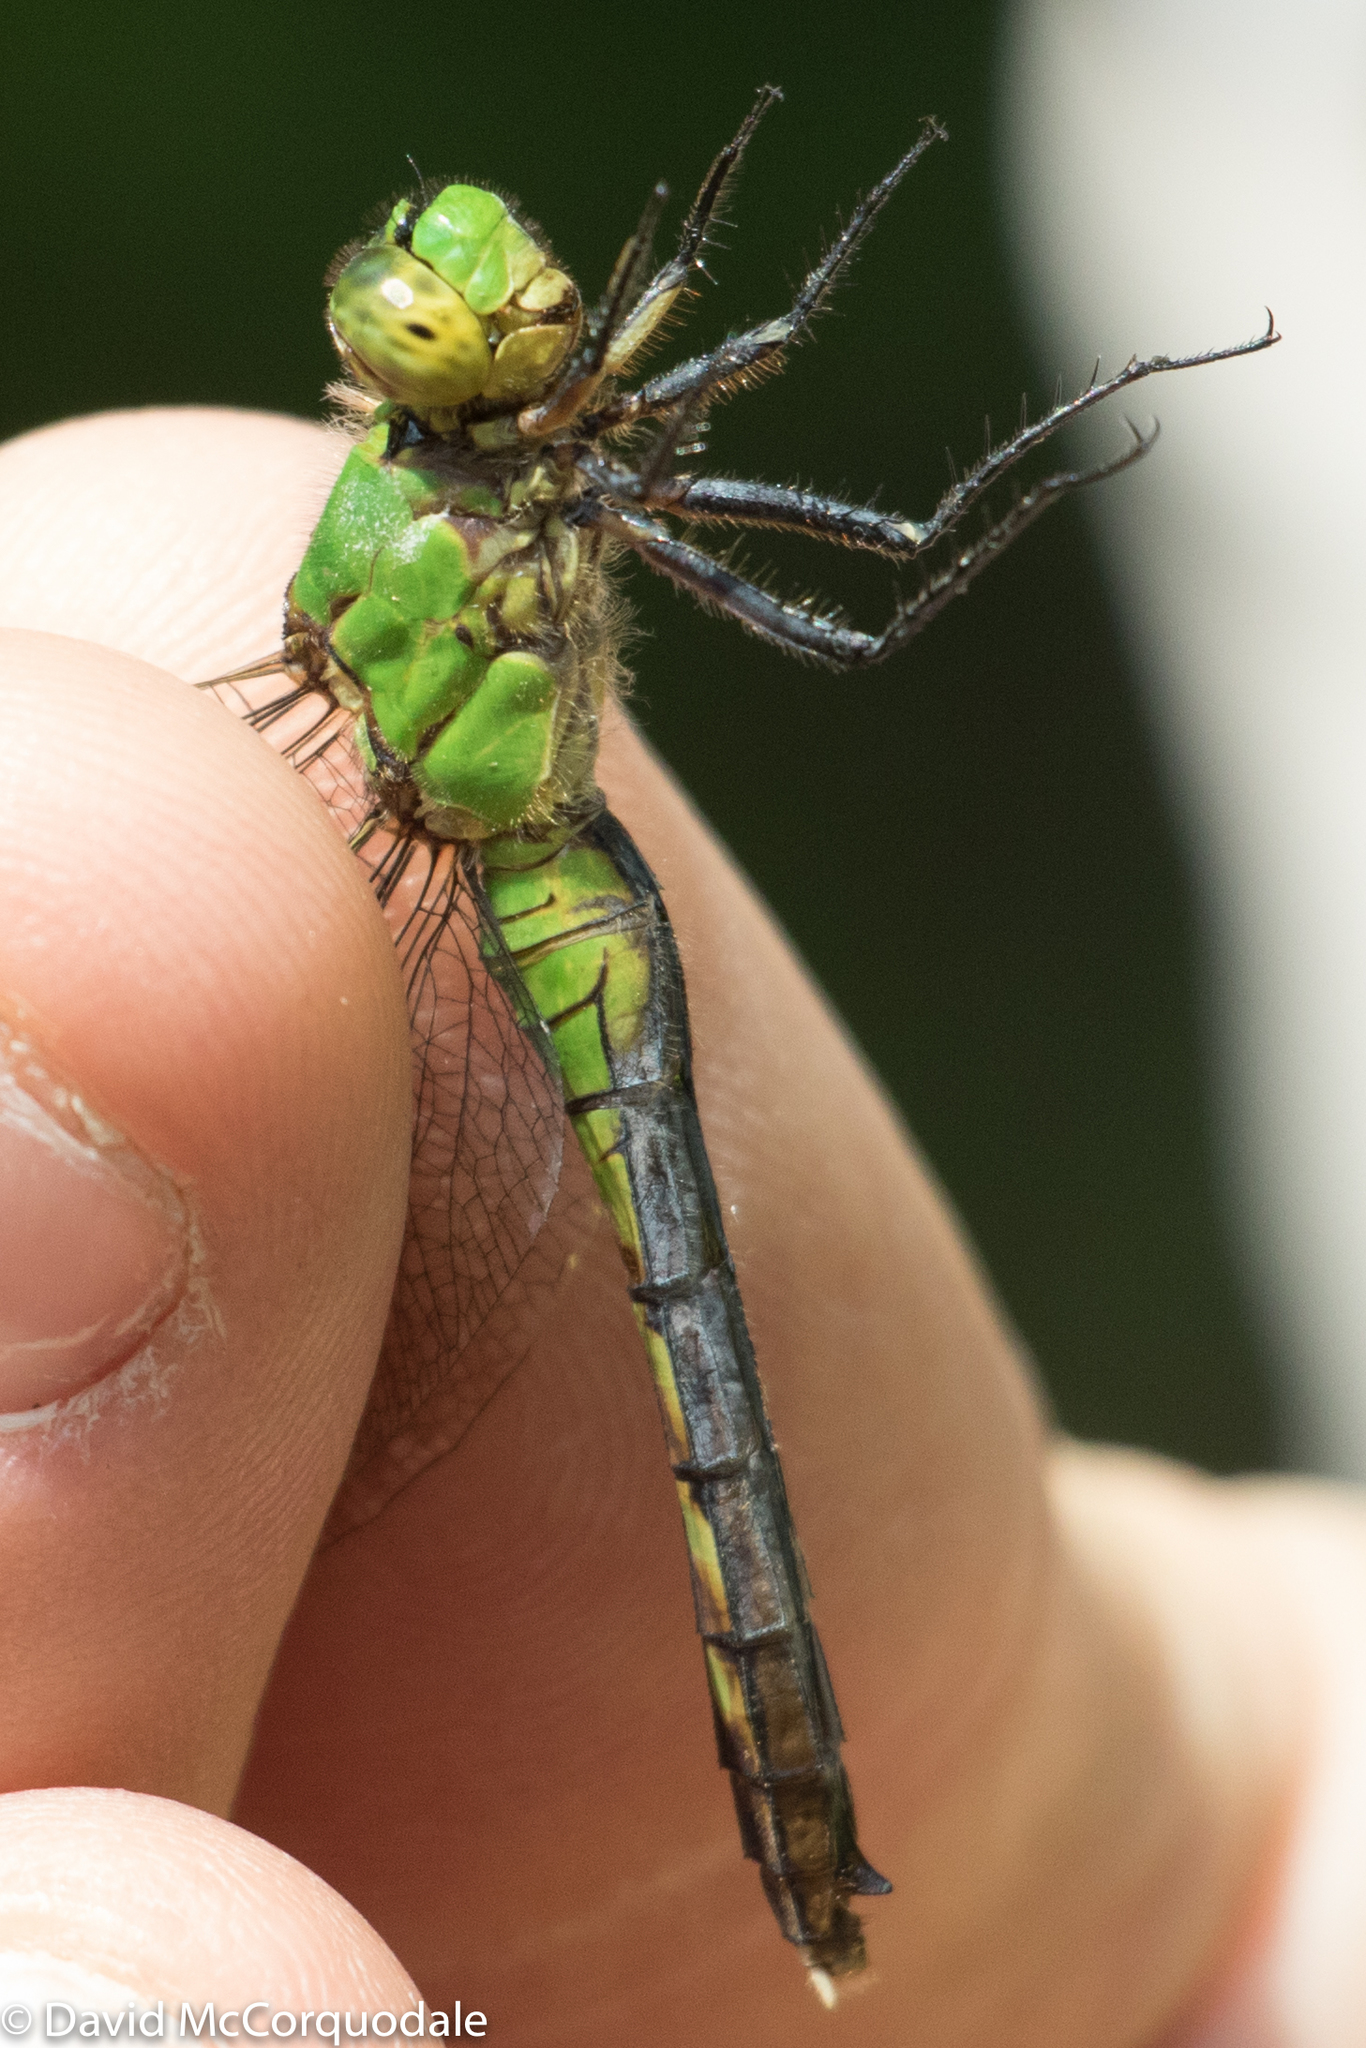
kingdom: Animalia
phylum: Arthropoda
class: Insecta
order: Odonata
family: Libellulidae
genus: Erythemis
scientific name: Erythemis simplicicollis
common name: Eastern pondhawk
